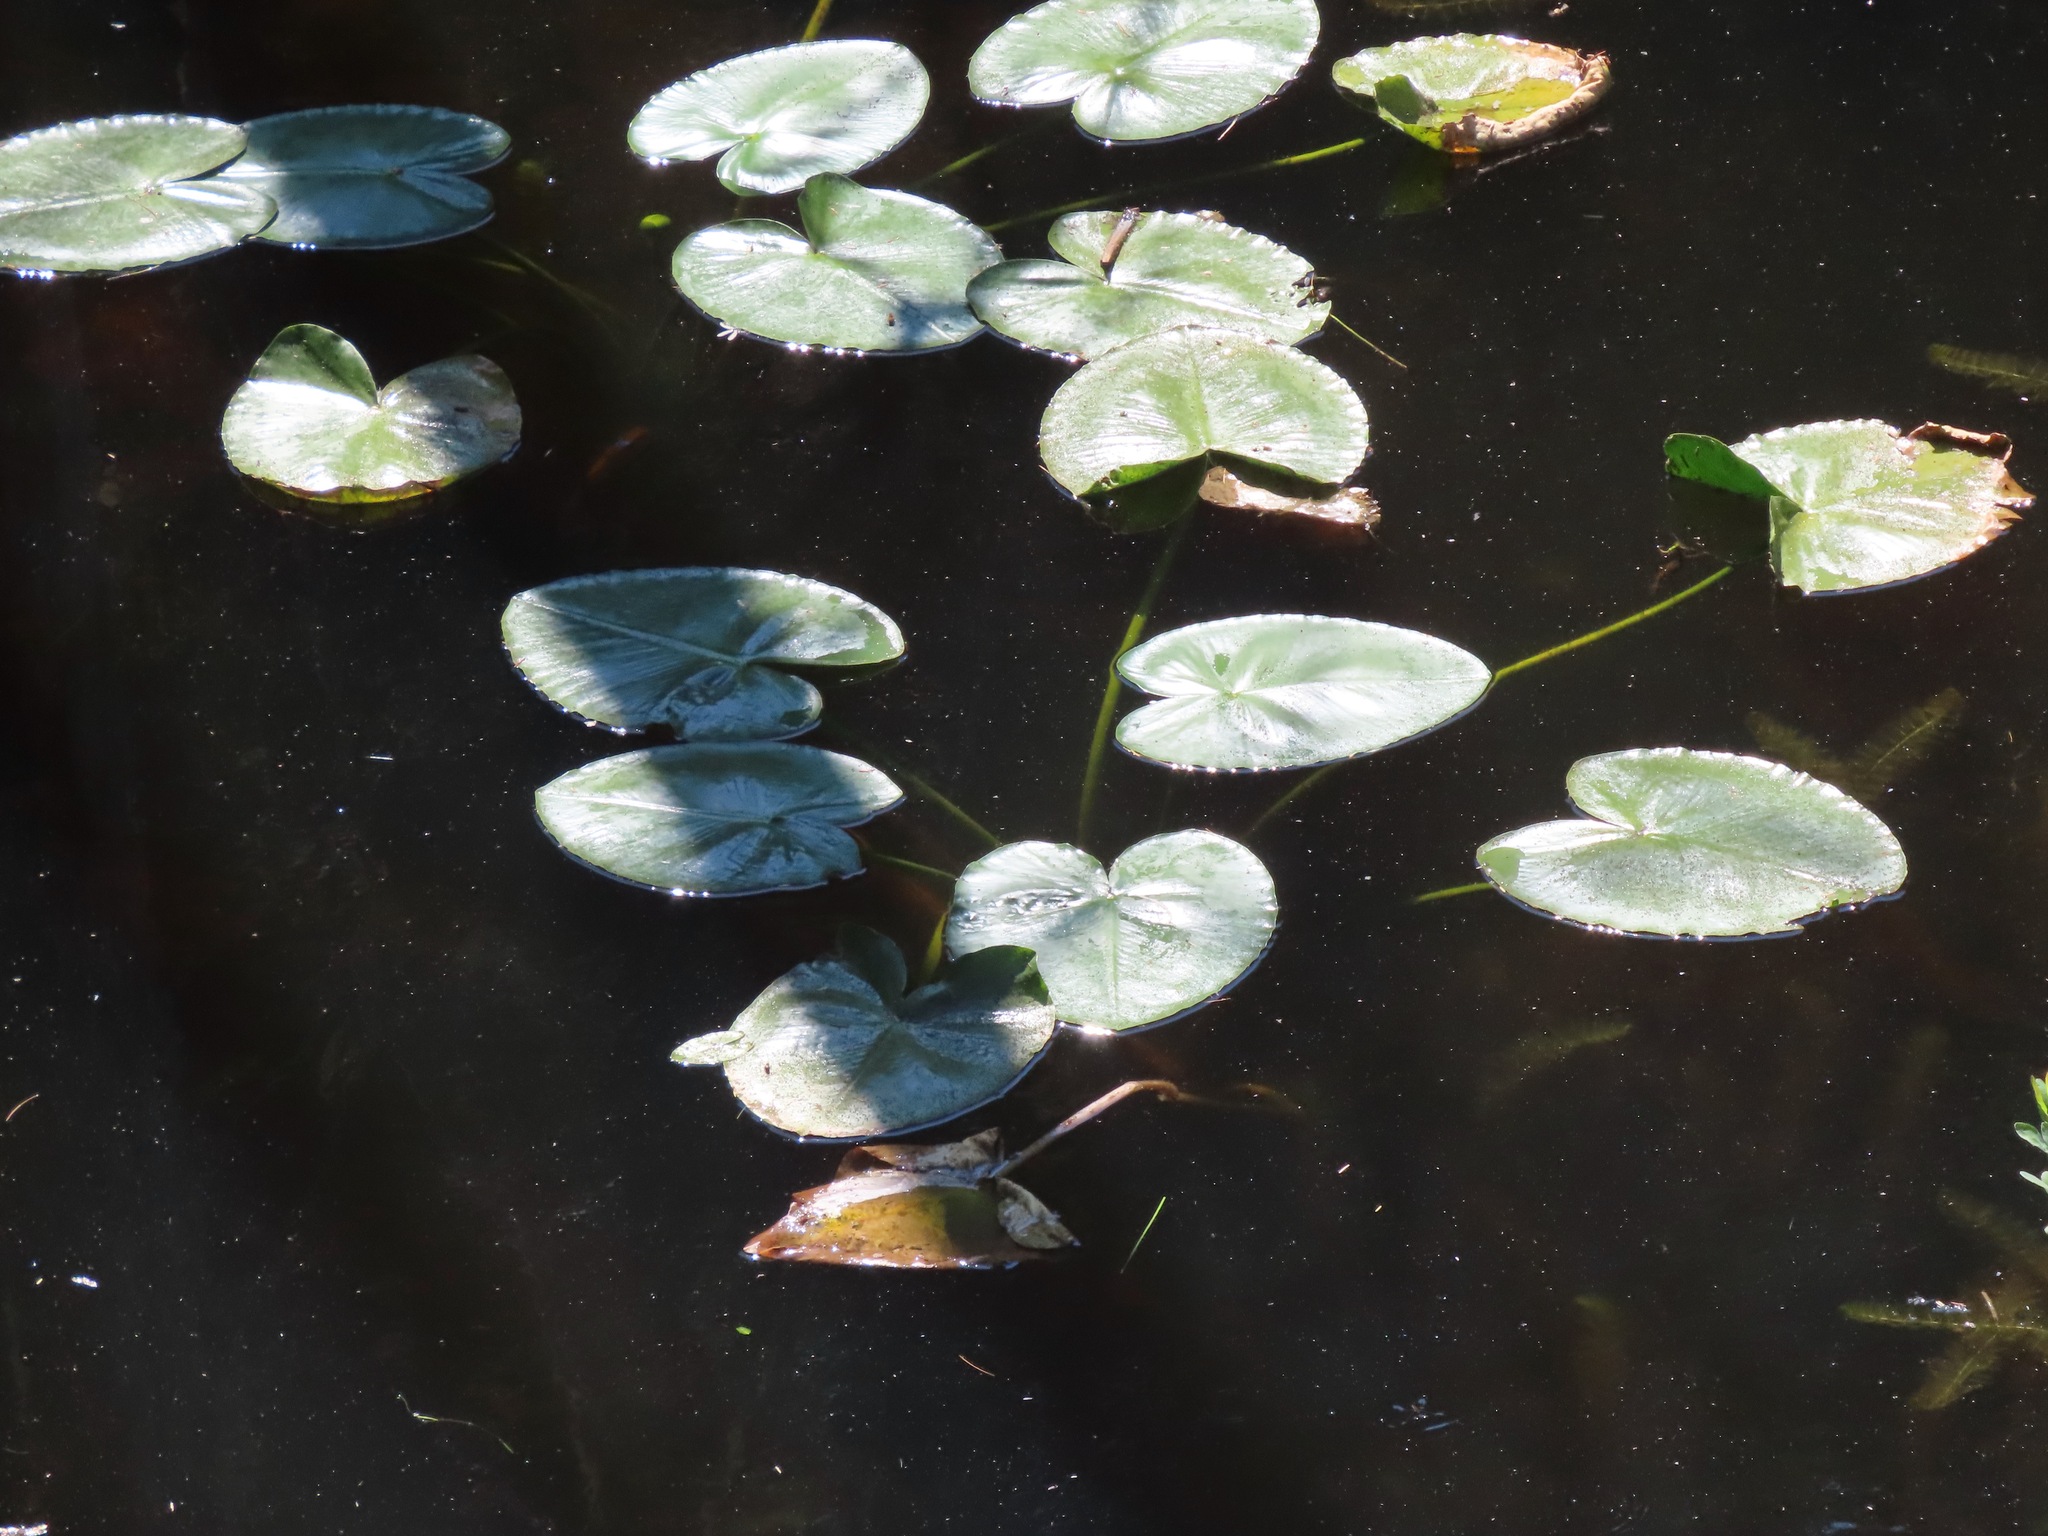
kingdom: Plantae
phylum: Tracheophyta
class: Magnoliopsida
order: Nymphaeales
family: Nymphaeaceae
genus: Nuphar
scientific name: Nuphar polysepala
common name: Rocky mountain cow-lily
